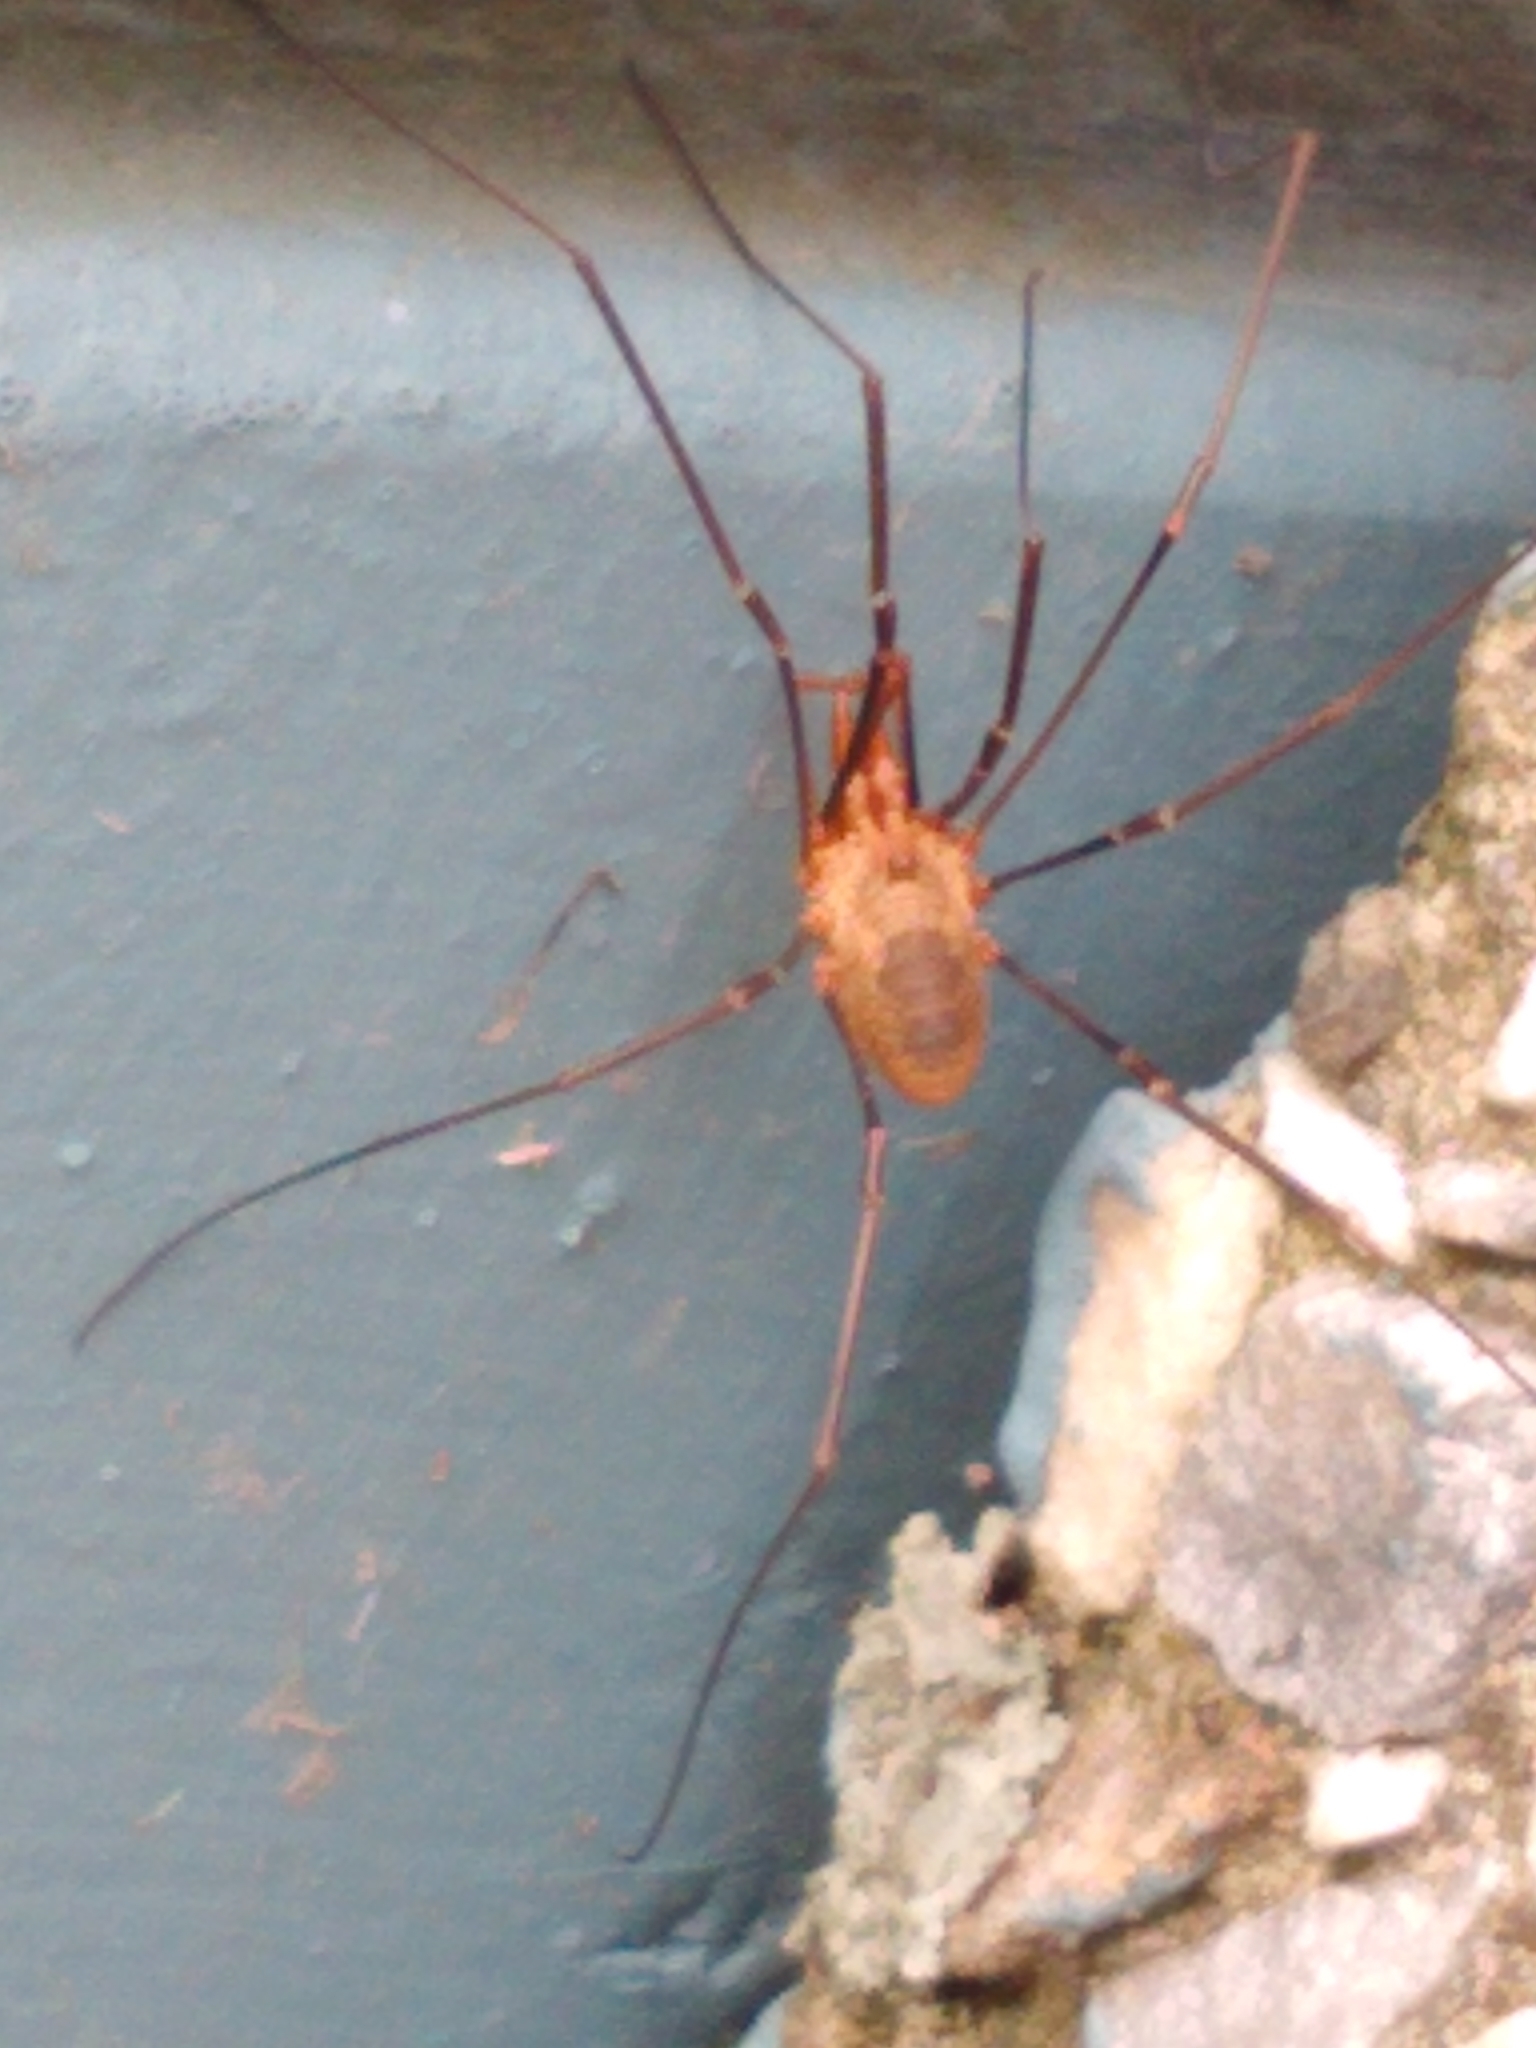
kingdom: Animalia
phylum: Arthropoda
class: Arachnida
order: Opiliones
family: Phalangiidae
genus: Phalangium
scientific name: Phalangium opilio
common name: Daddy longleg
